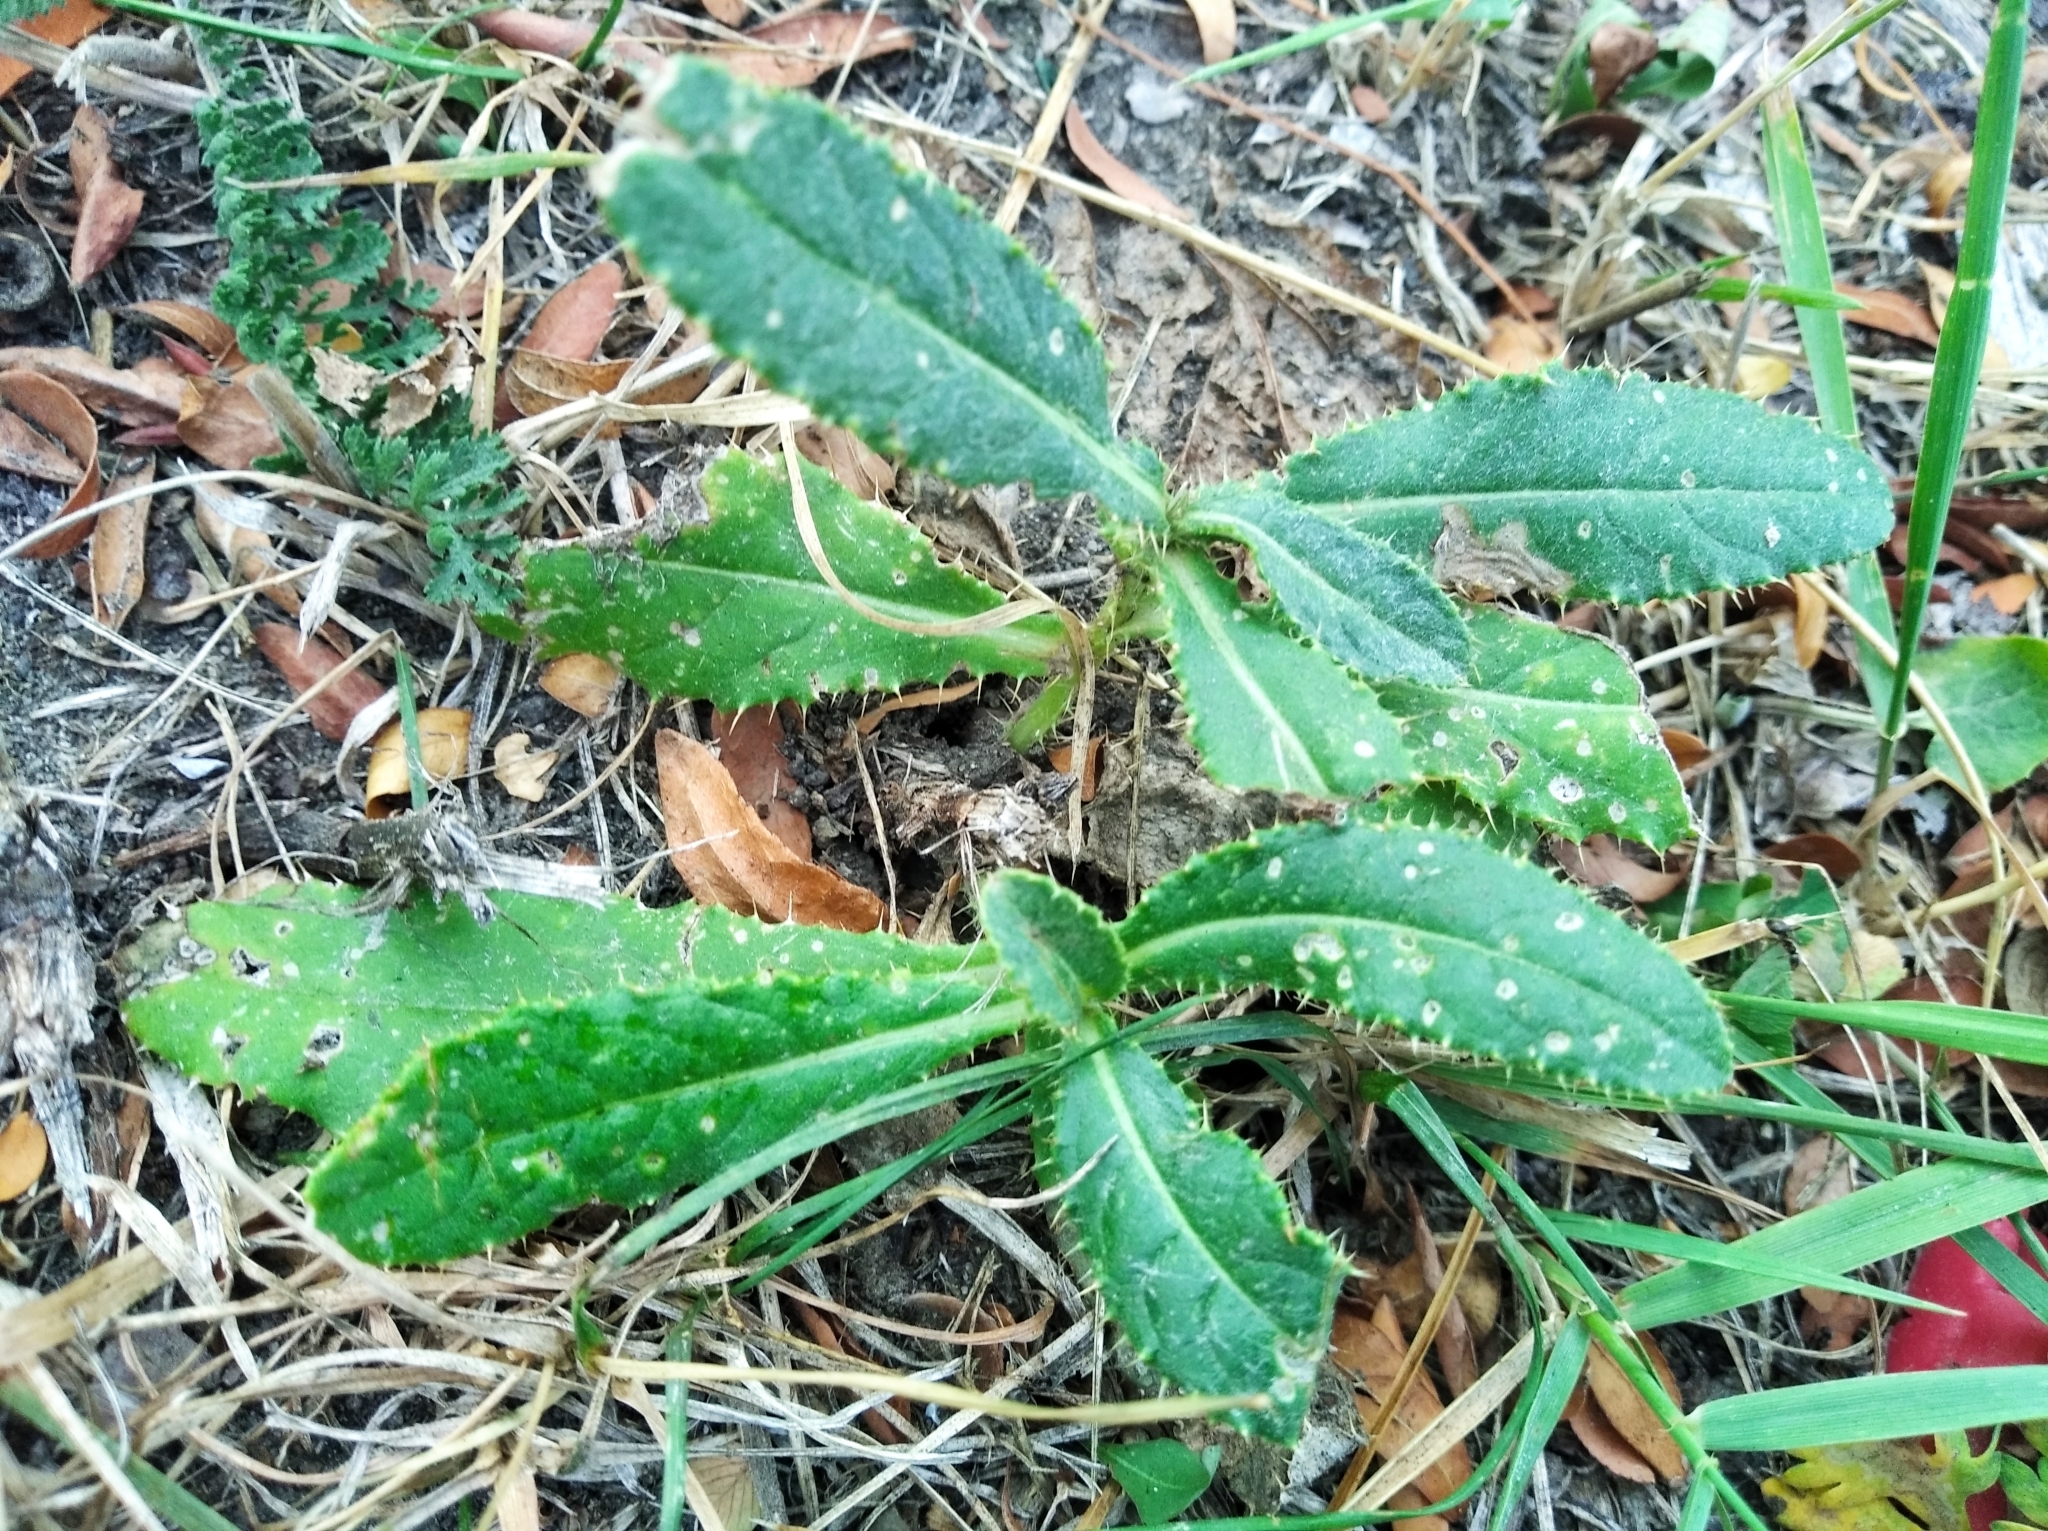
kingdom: Plantae
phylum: Tracheophyta
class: Magnoliopsida
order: Asterales
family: Asteraceae
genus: Cirsium
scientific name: Cirsium arvense
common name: Creeping thistle
